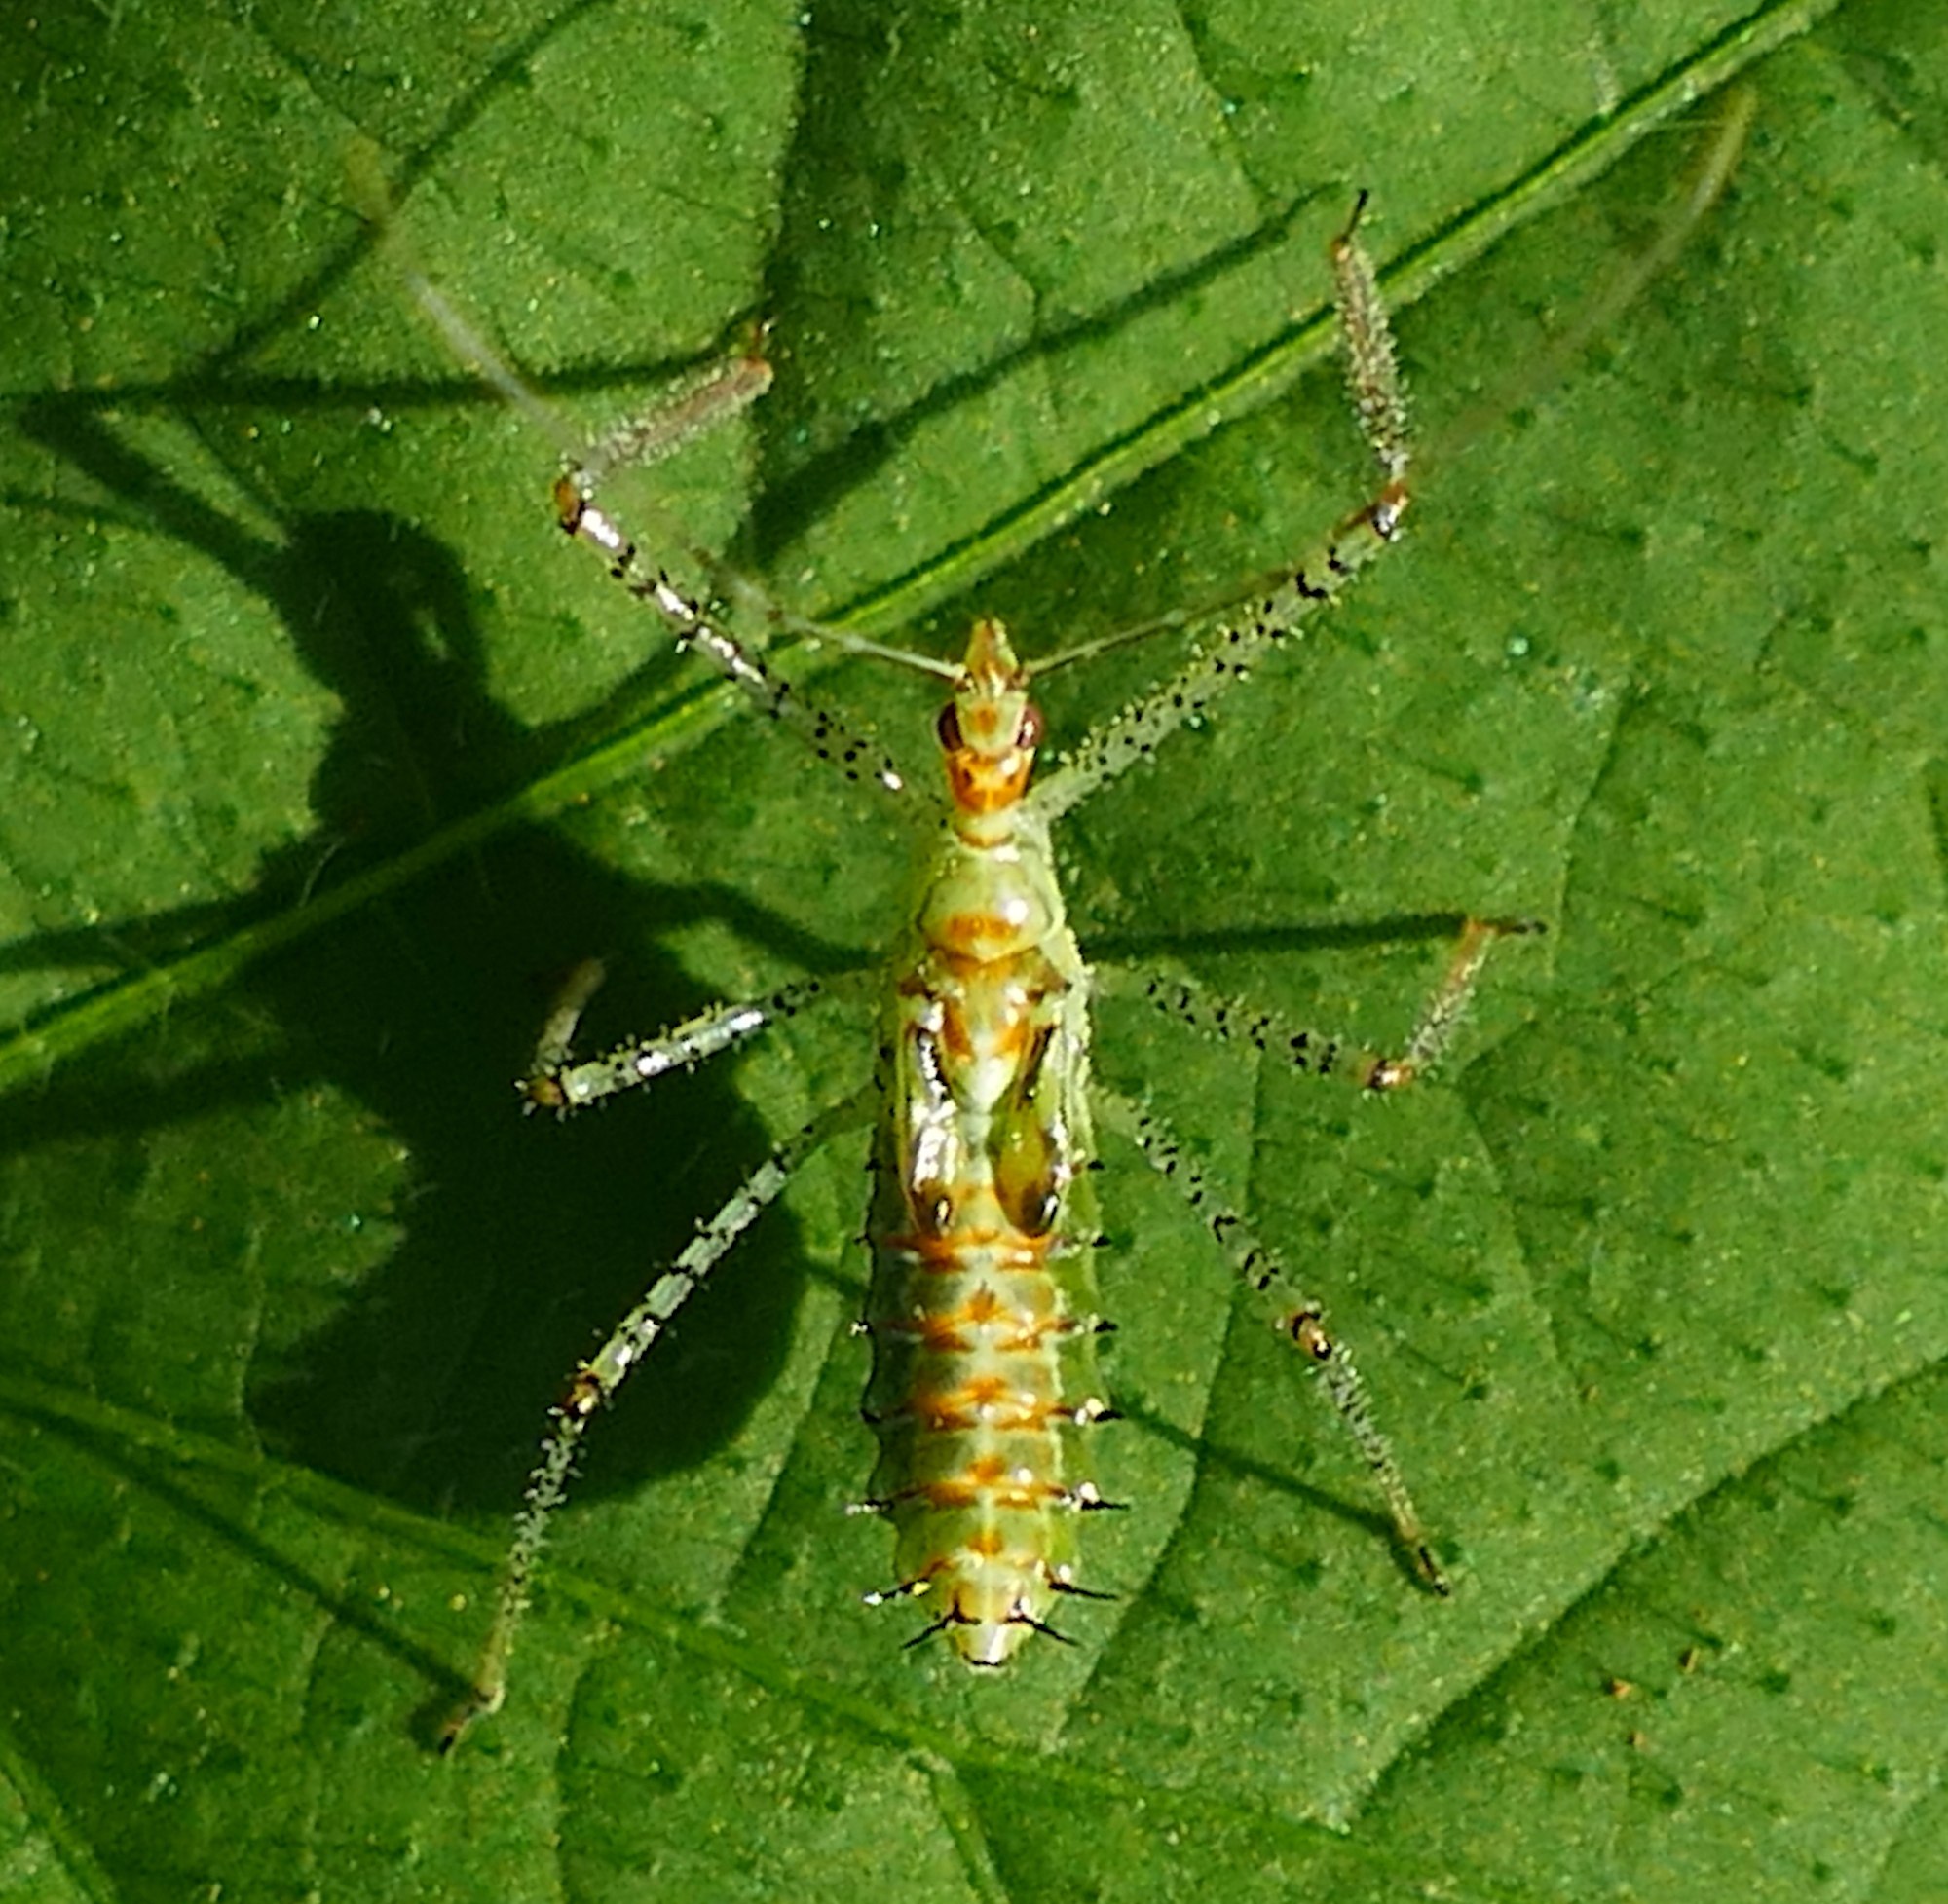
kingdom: Animalia
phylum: Arthropoda
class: Insecta
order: Hemiptera
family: Reduviidae
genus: Zelus
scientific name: Zelus renardii
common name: Assassin bug
